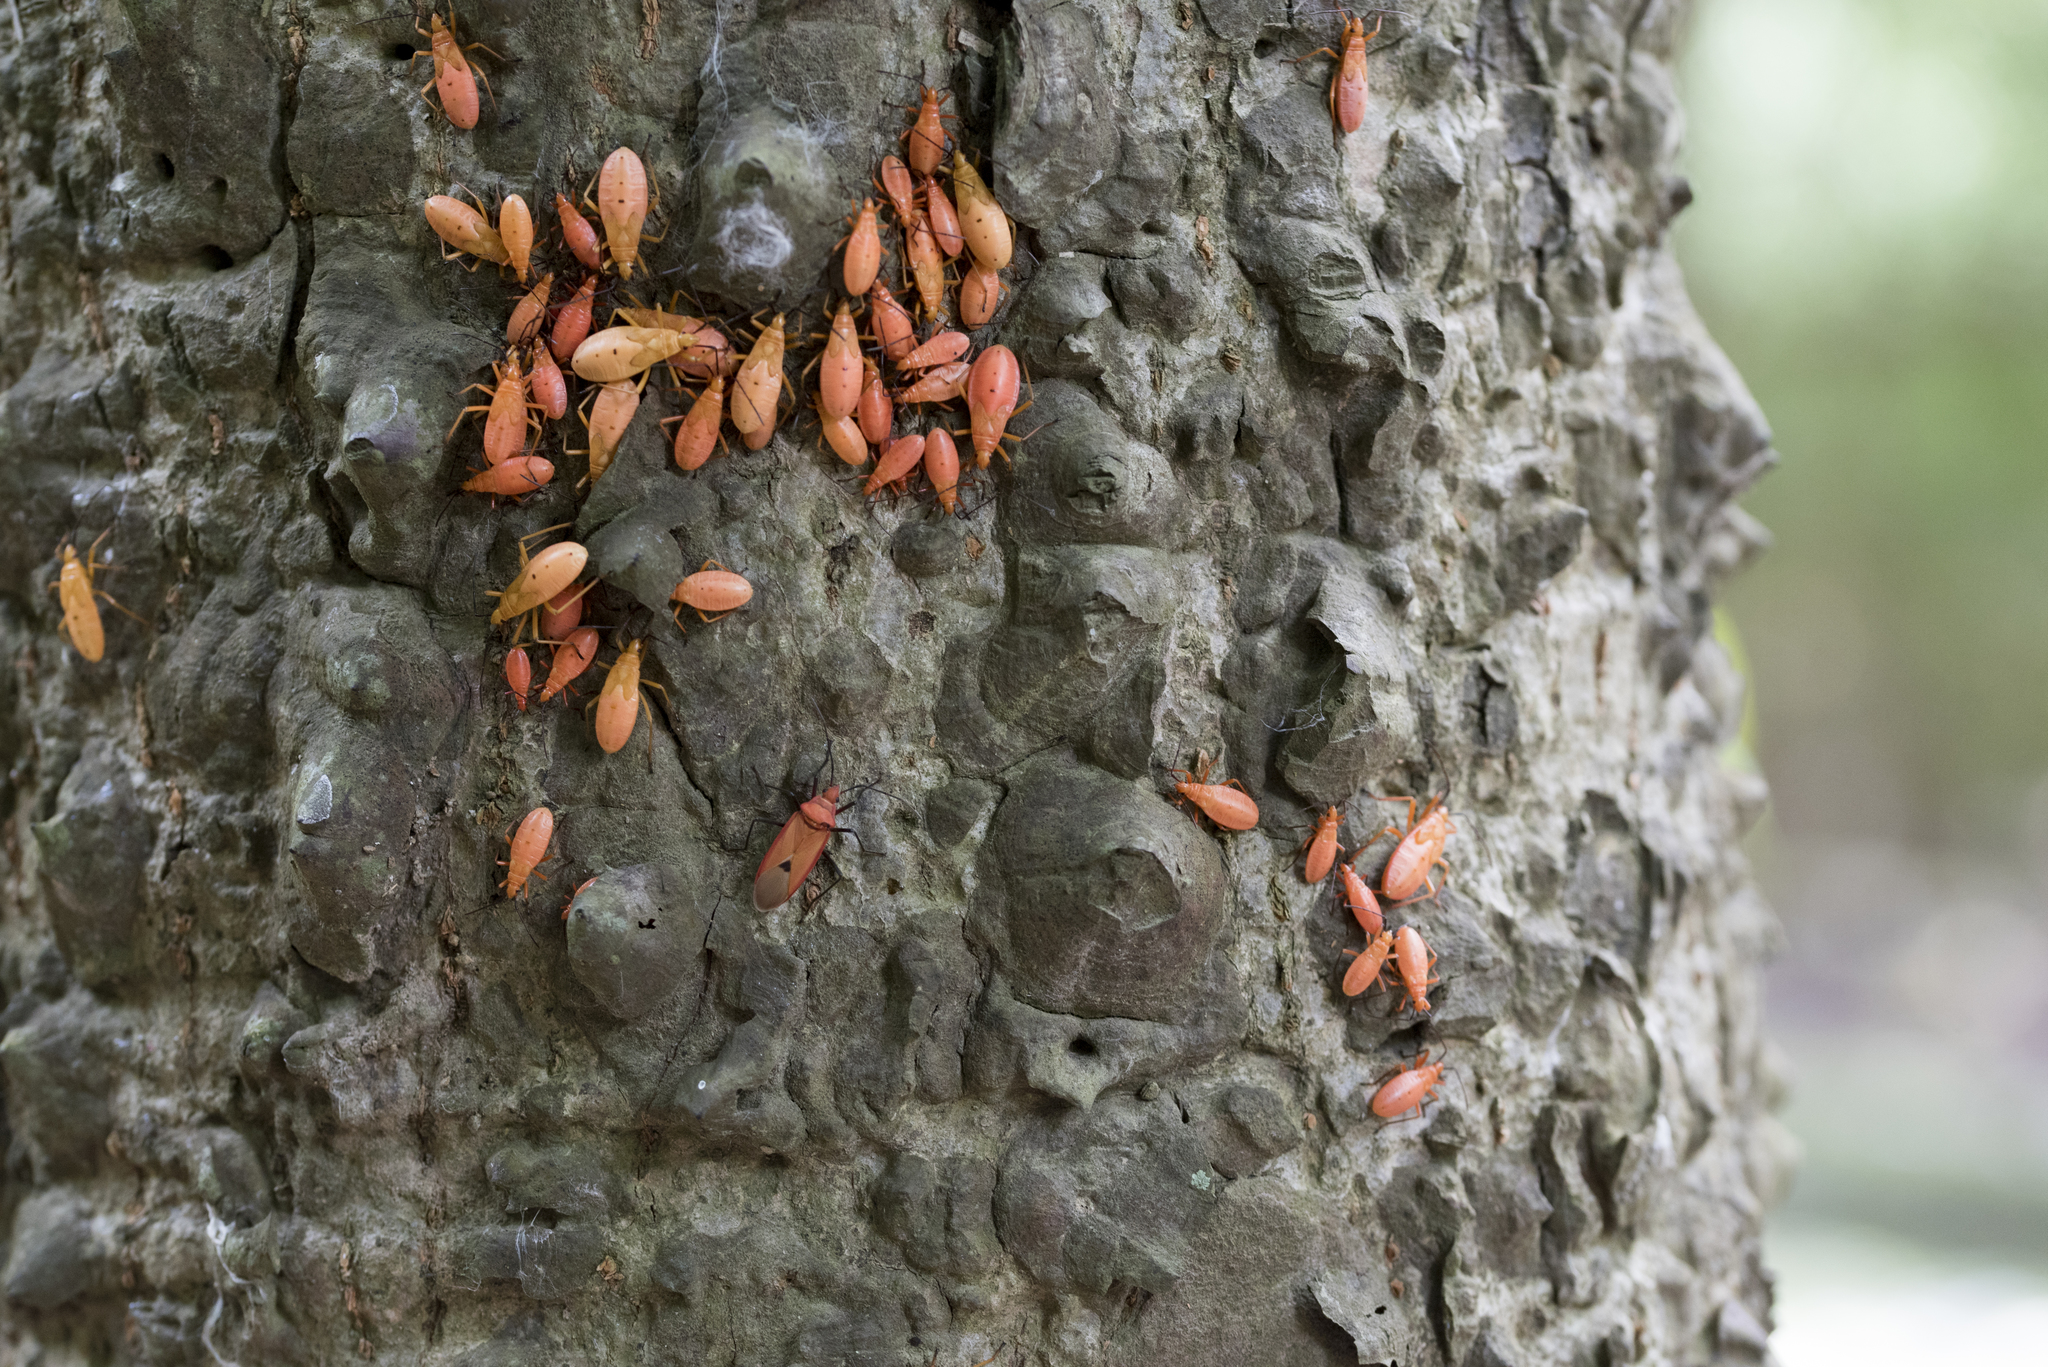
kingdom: Animalia
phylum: Arthropoda
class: Insecta
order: Hemiptera
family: Pyrrhocoridae
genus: Dysdercus
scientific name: Dysdercus fuscomaculatus
